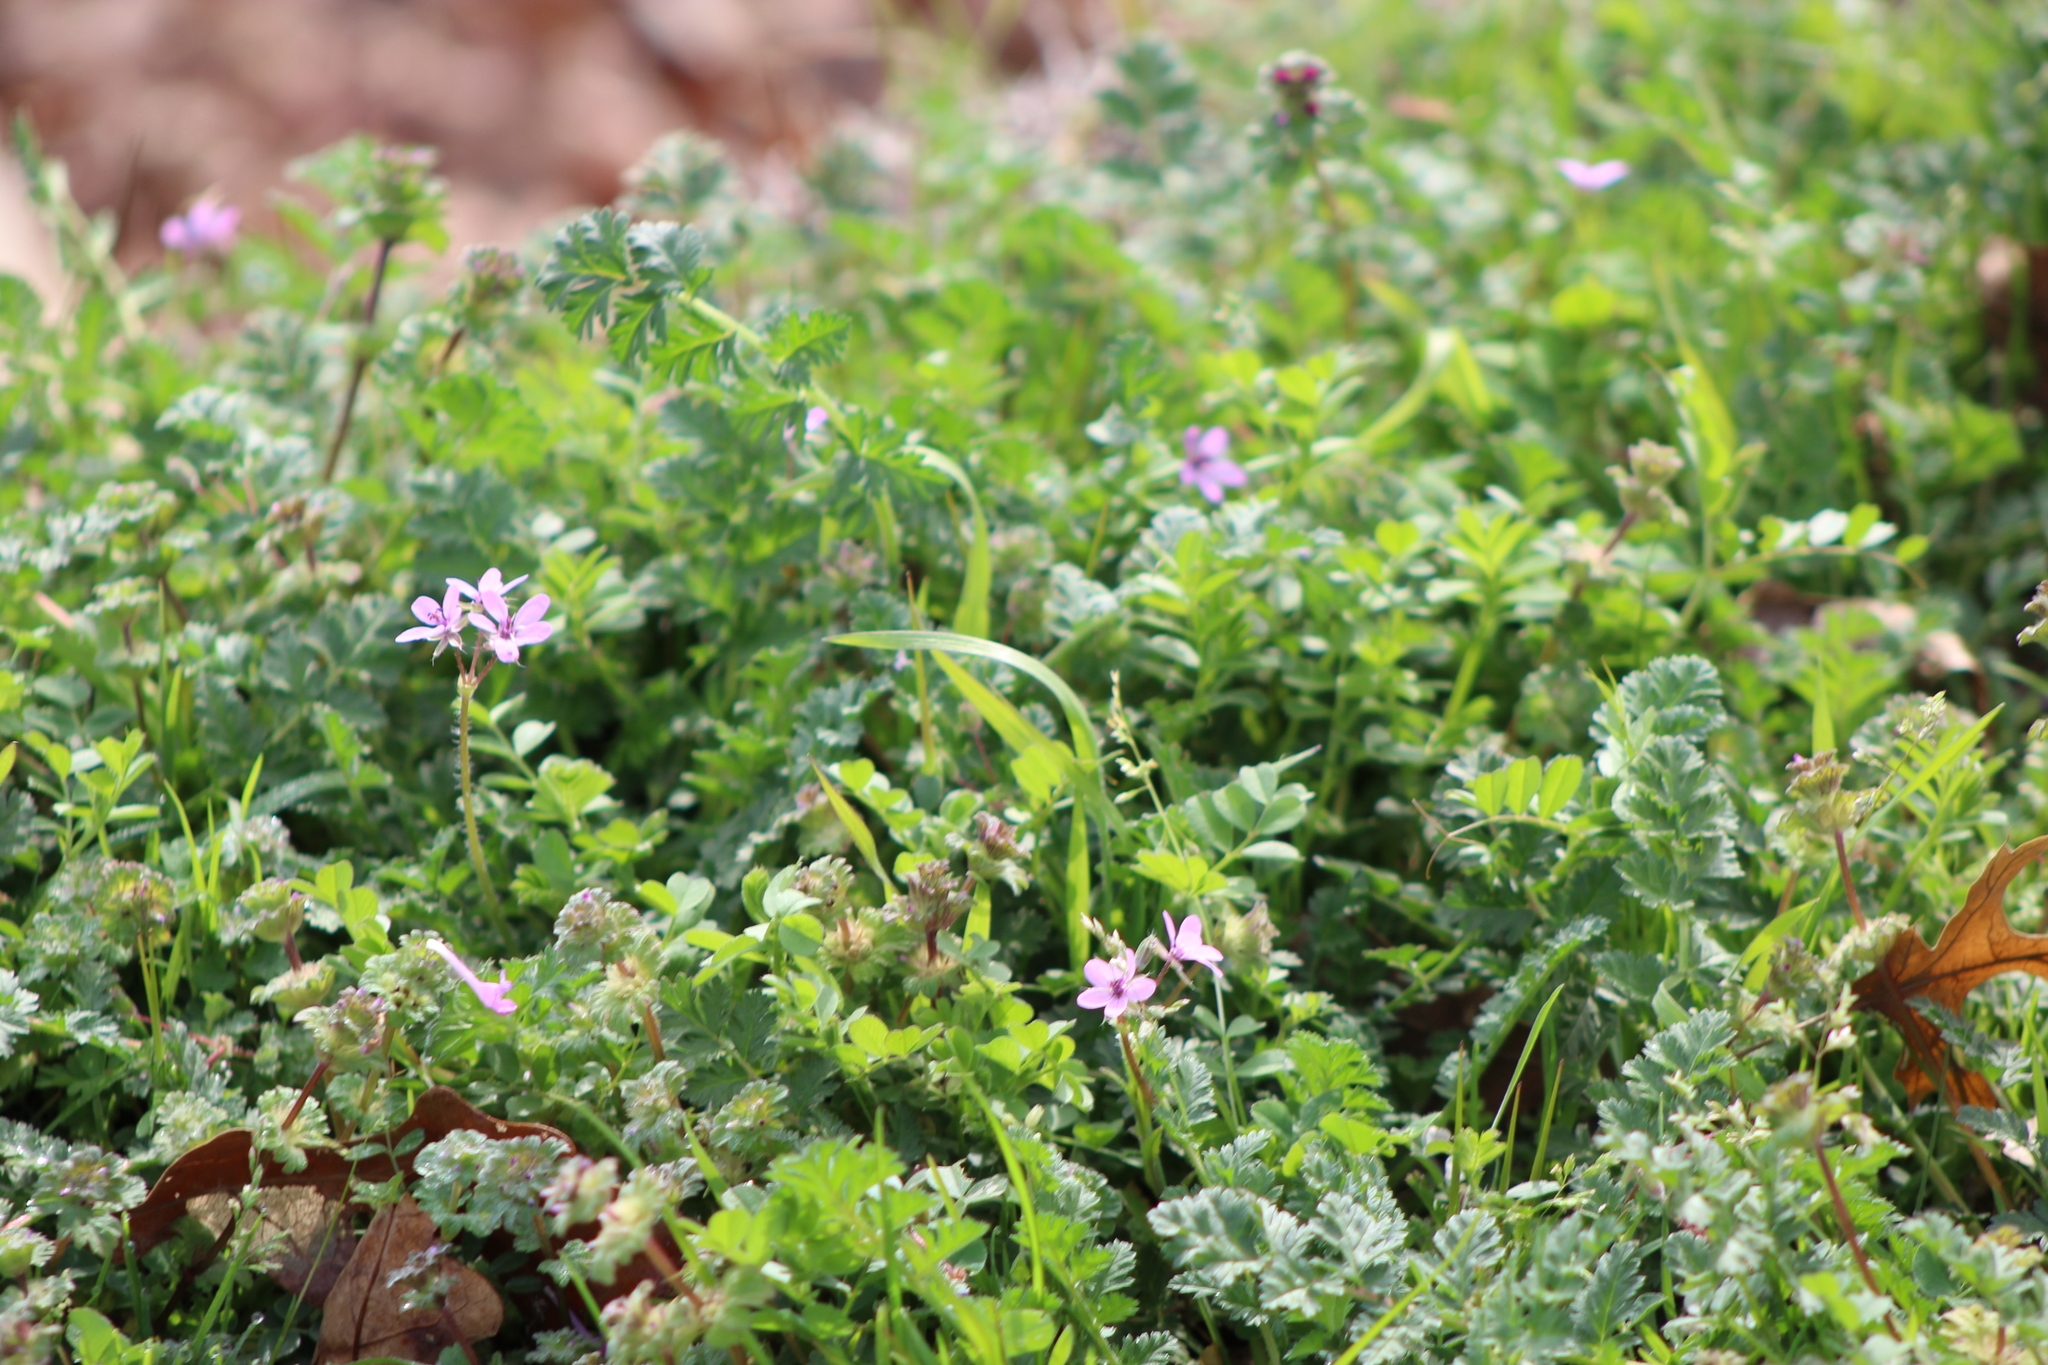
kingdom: Plantae
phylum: Tracheophyta
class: Magnoliopsida
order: Lamiales
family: Lamiaceae
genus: Lamium
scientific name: Lamium amplexicaule
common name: Henbit dead-nettle
